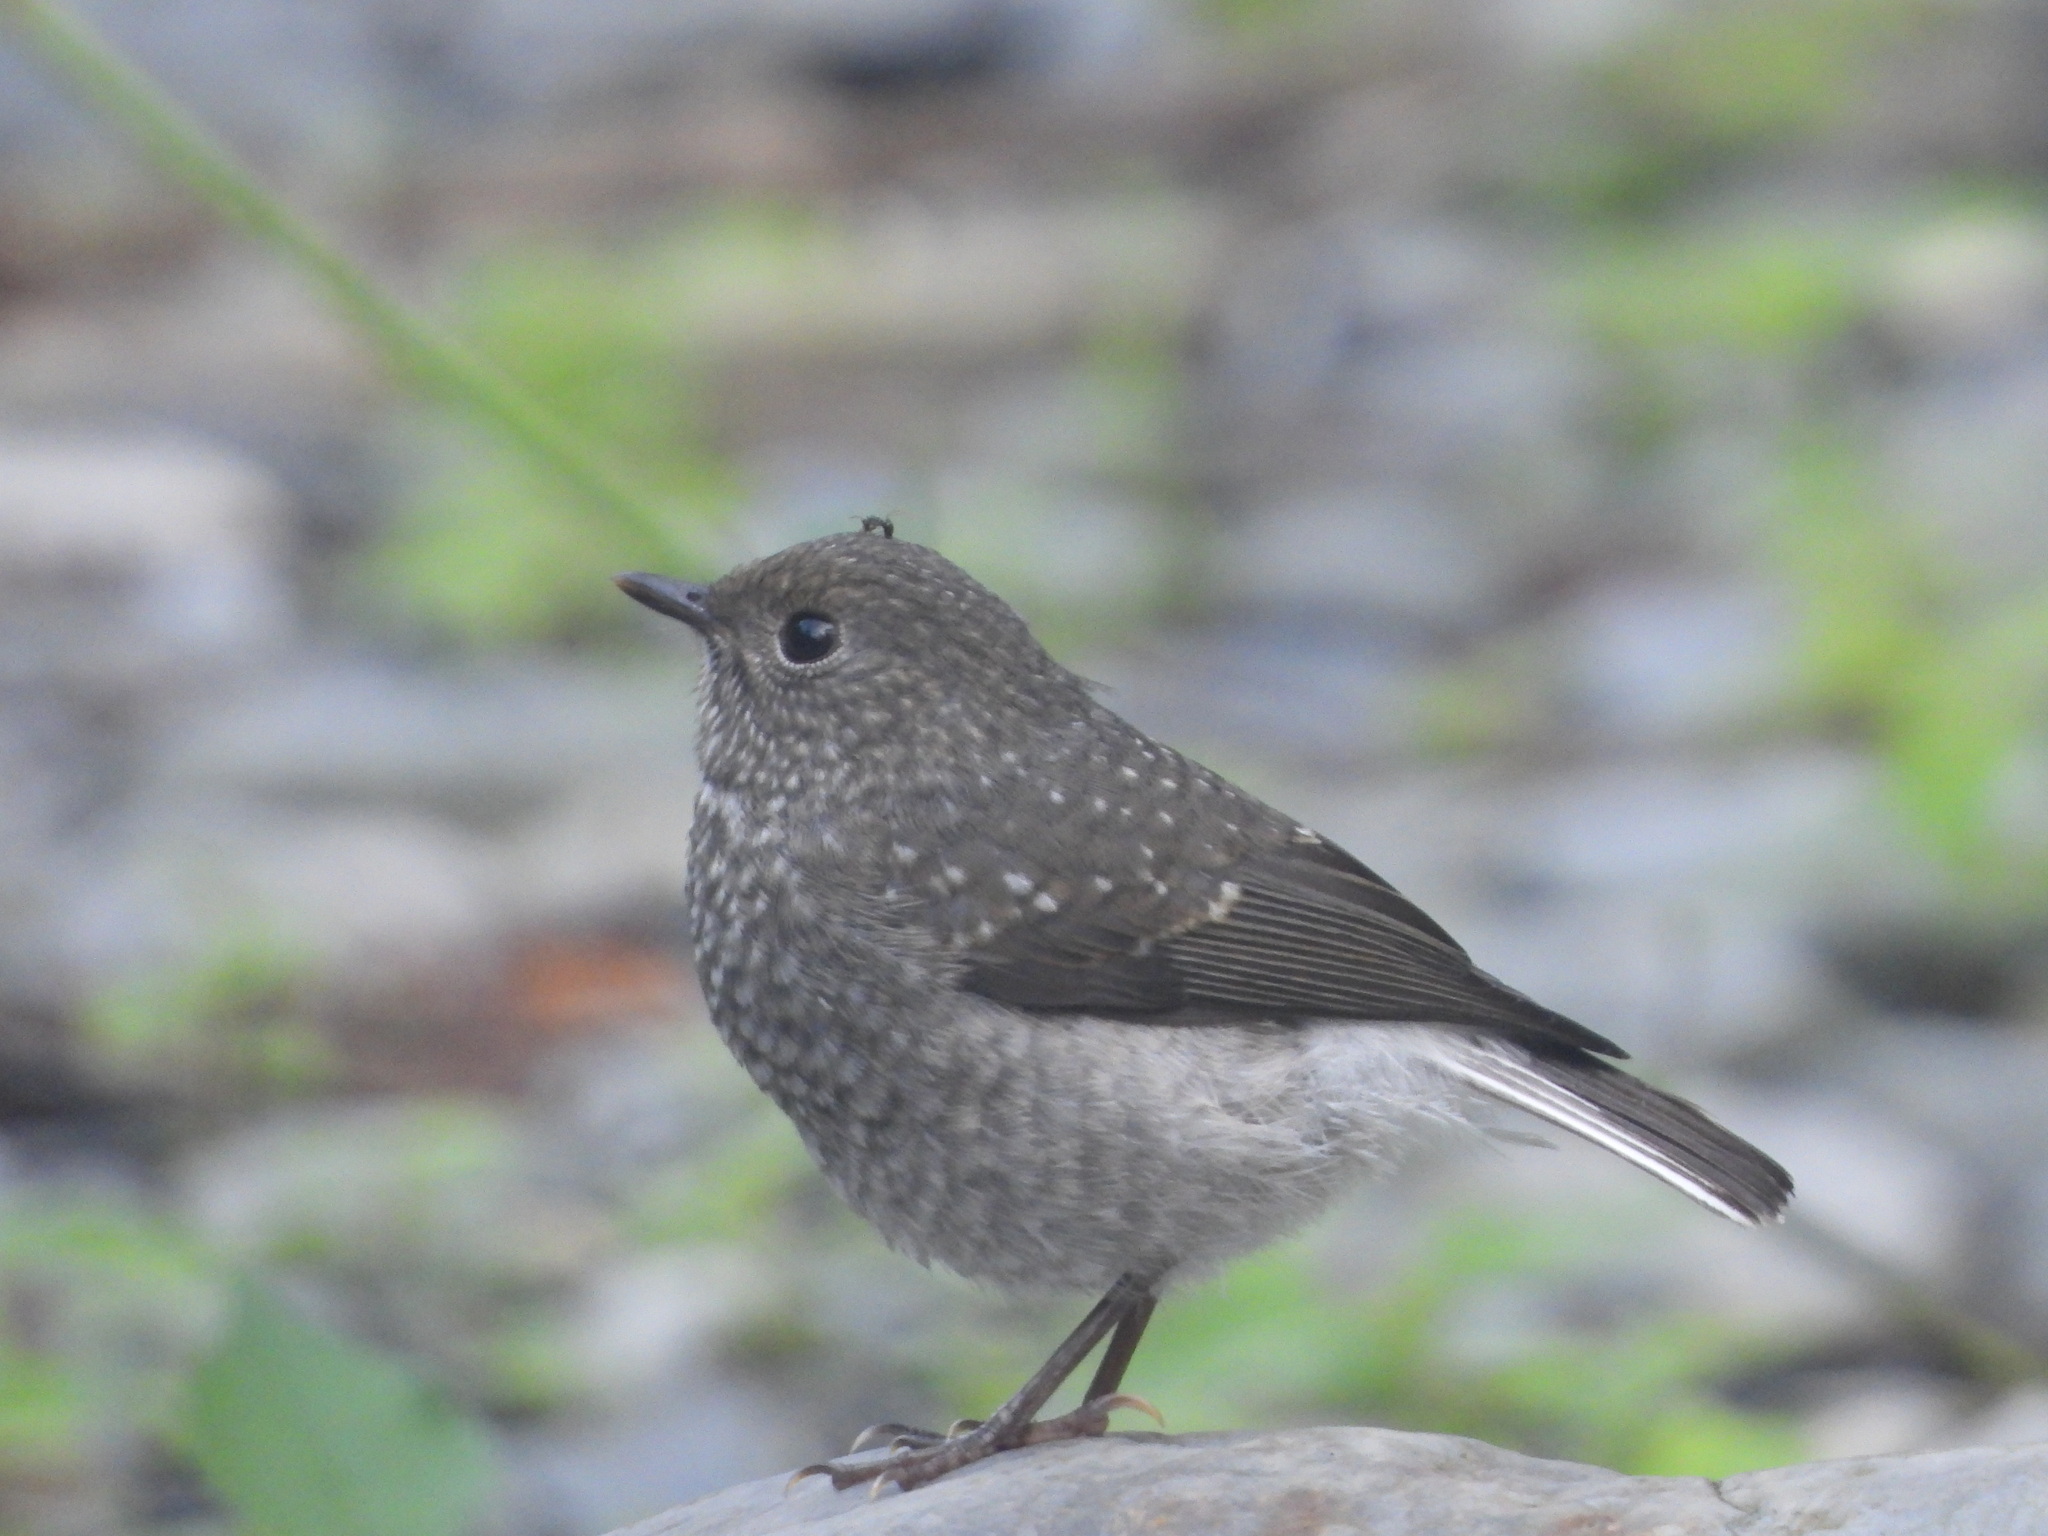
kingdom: Animalia
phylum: Chordata
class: Aves
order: Passeriformes
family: Muscicapidae
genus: Phoenicurus
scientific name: Phoenicurus fuliginosus
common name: Plumbeous water redstart
